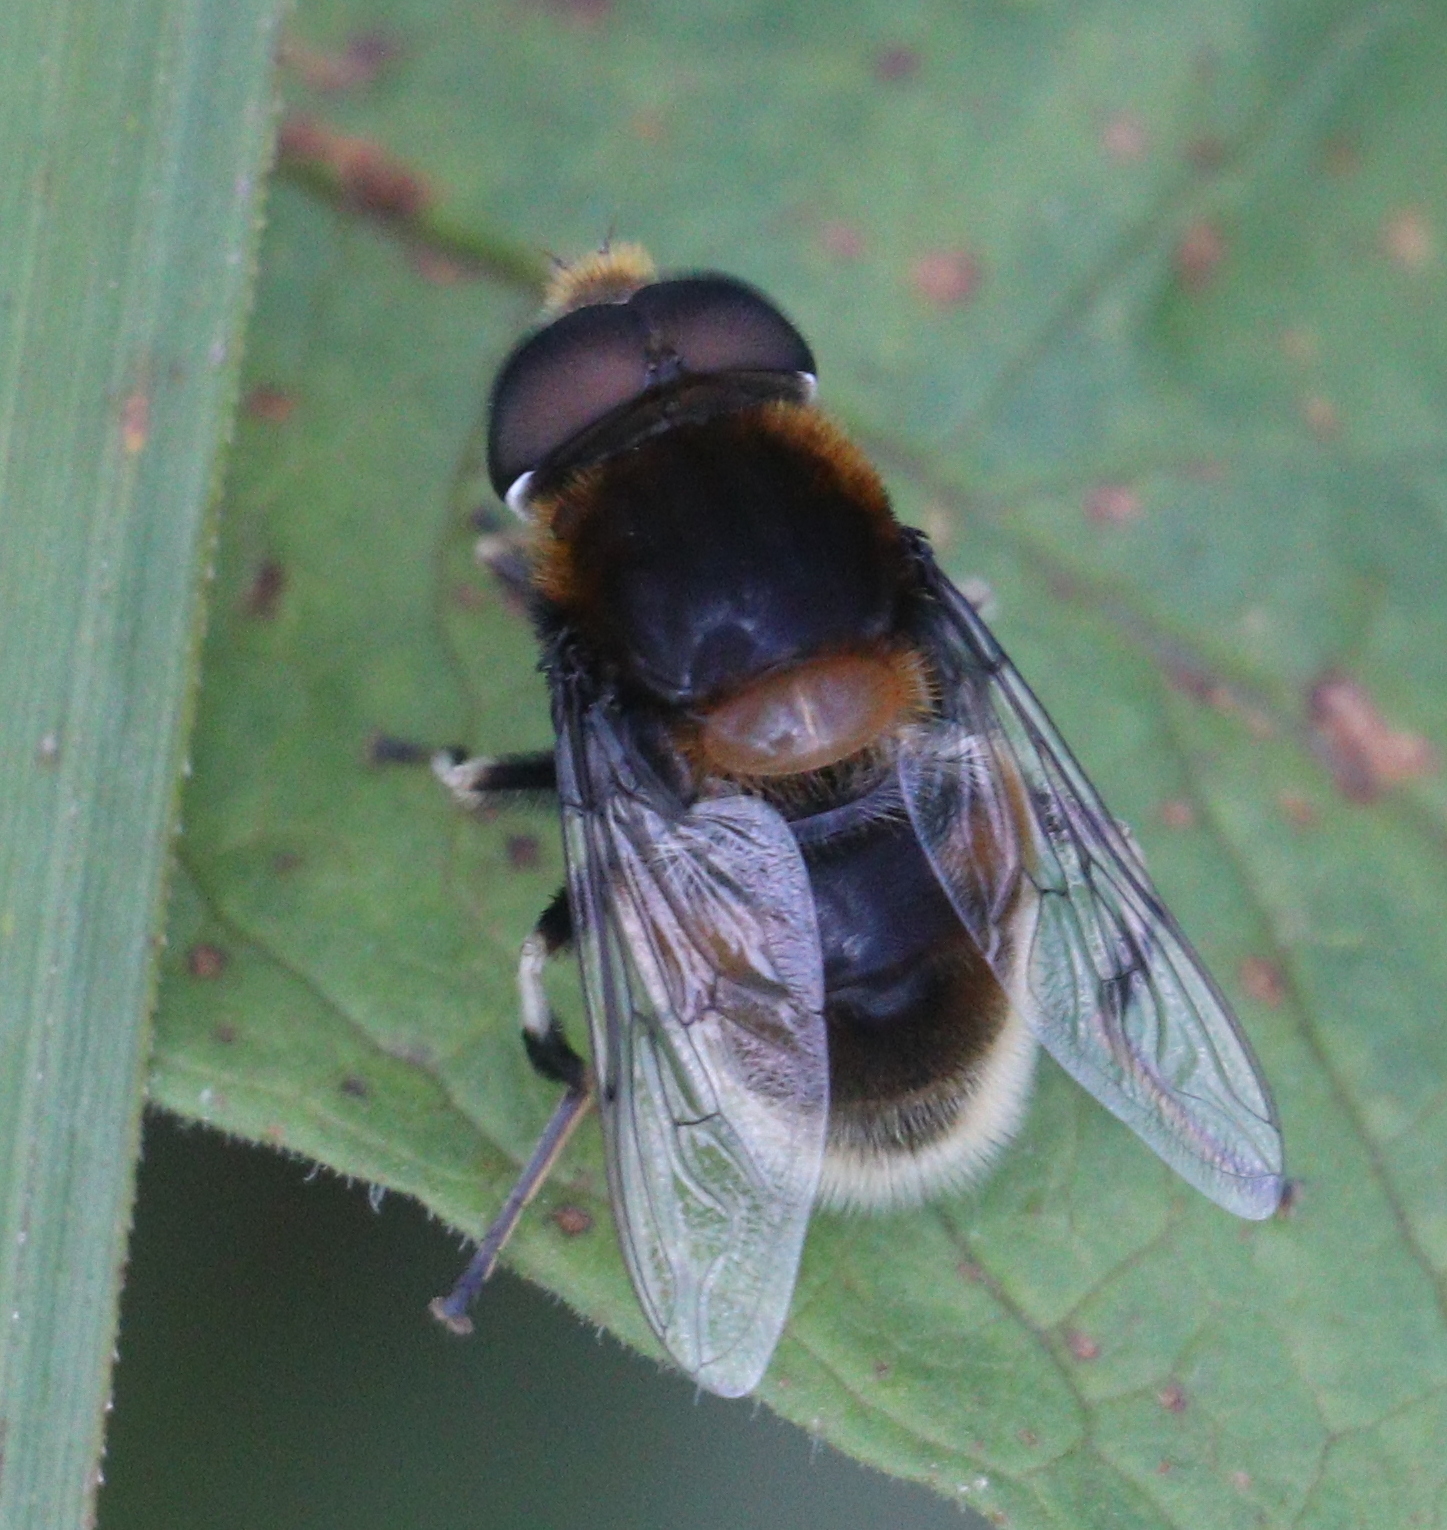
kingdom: Animalia
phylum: Arthropoda
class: Insecta
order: Diptera
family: Syrphidae
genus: Eristalis
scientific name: Eristalis intricaria
